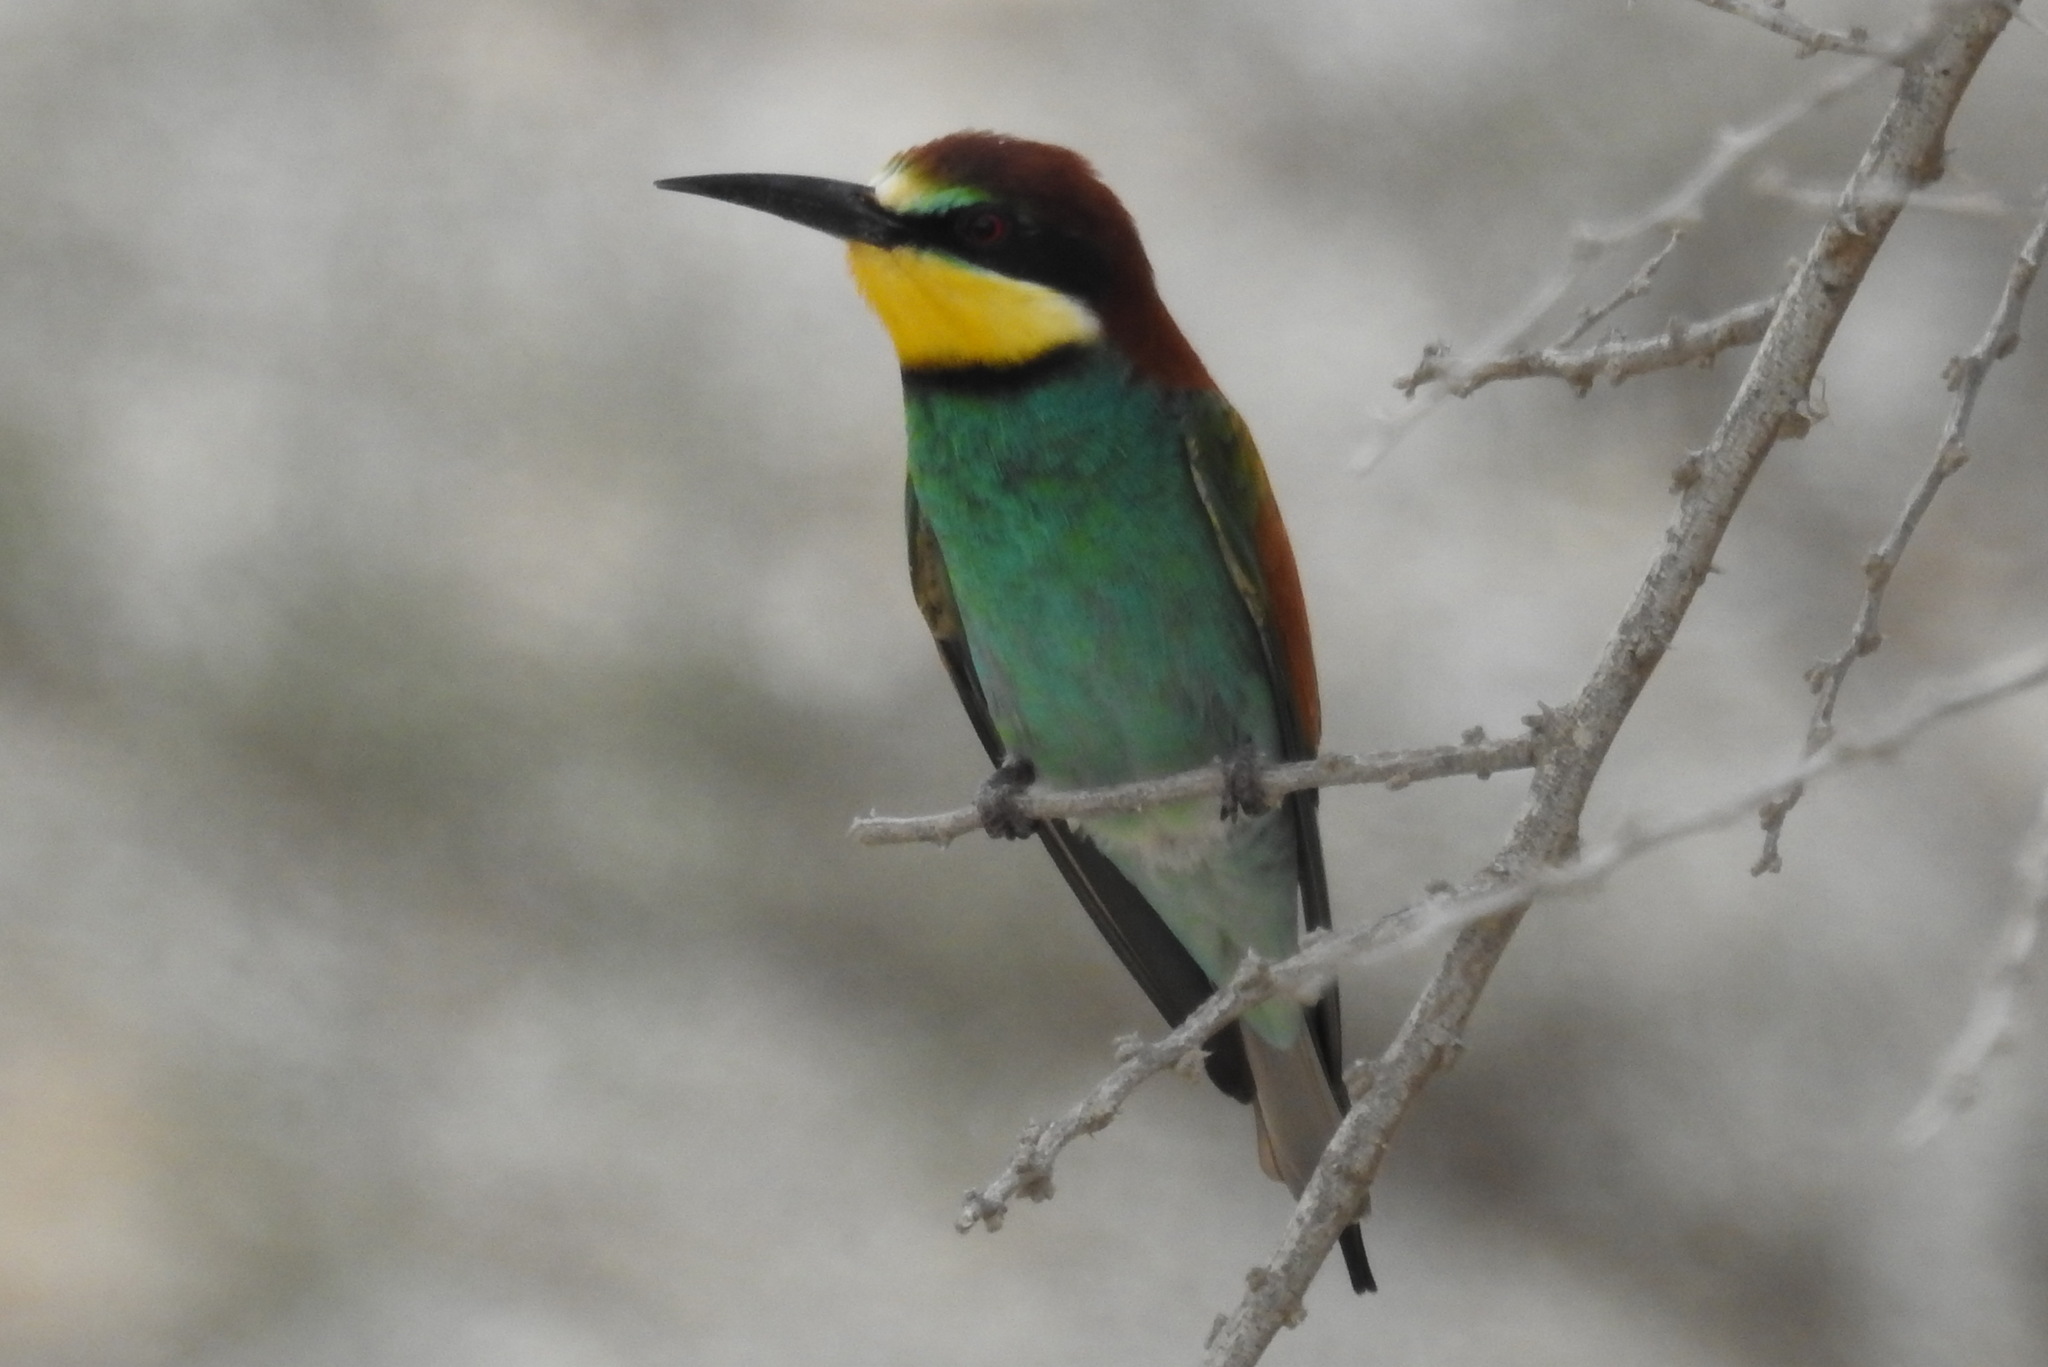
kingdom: Animalia
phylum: Chordata
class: Aves
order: Coraciiformes
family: Meropidae
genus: Merops
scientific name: Merops apiaster
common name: European bee-eater
